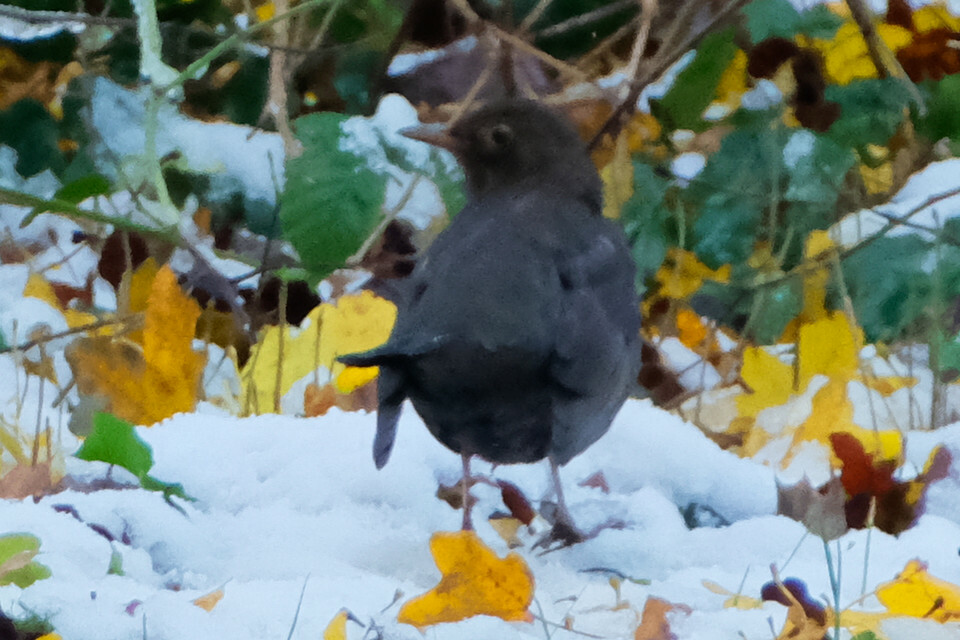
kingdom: Animalia
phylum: Chordata
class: Aves
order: Passeriformes
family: Turdidae
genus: Turdus
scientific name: Turdus merula
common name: Common blackbird
